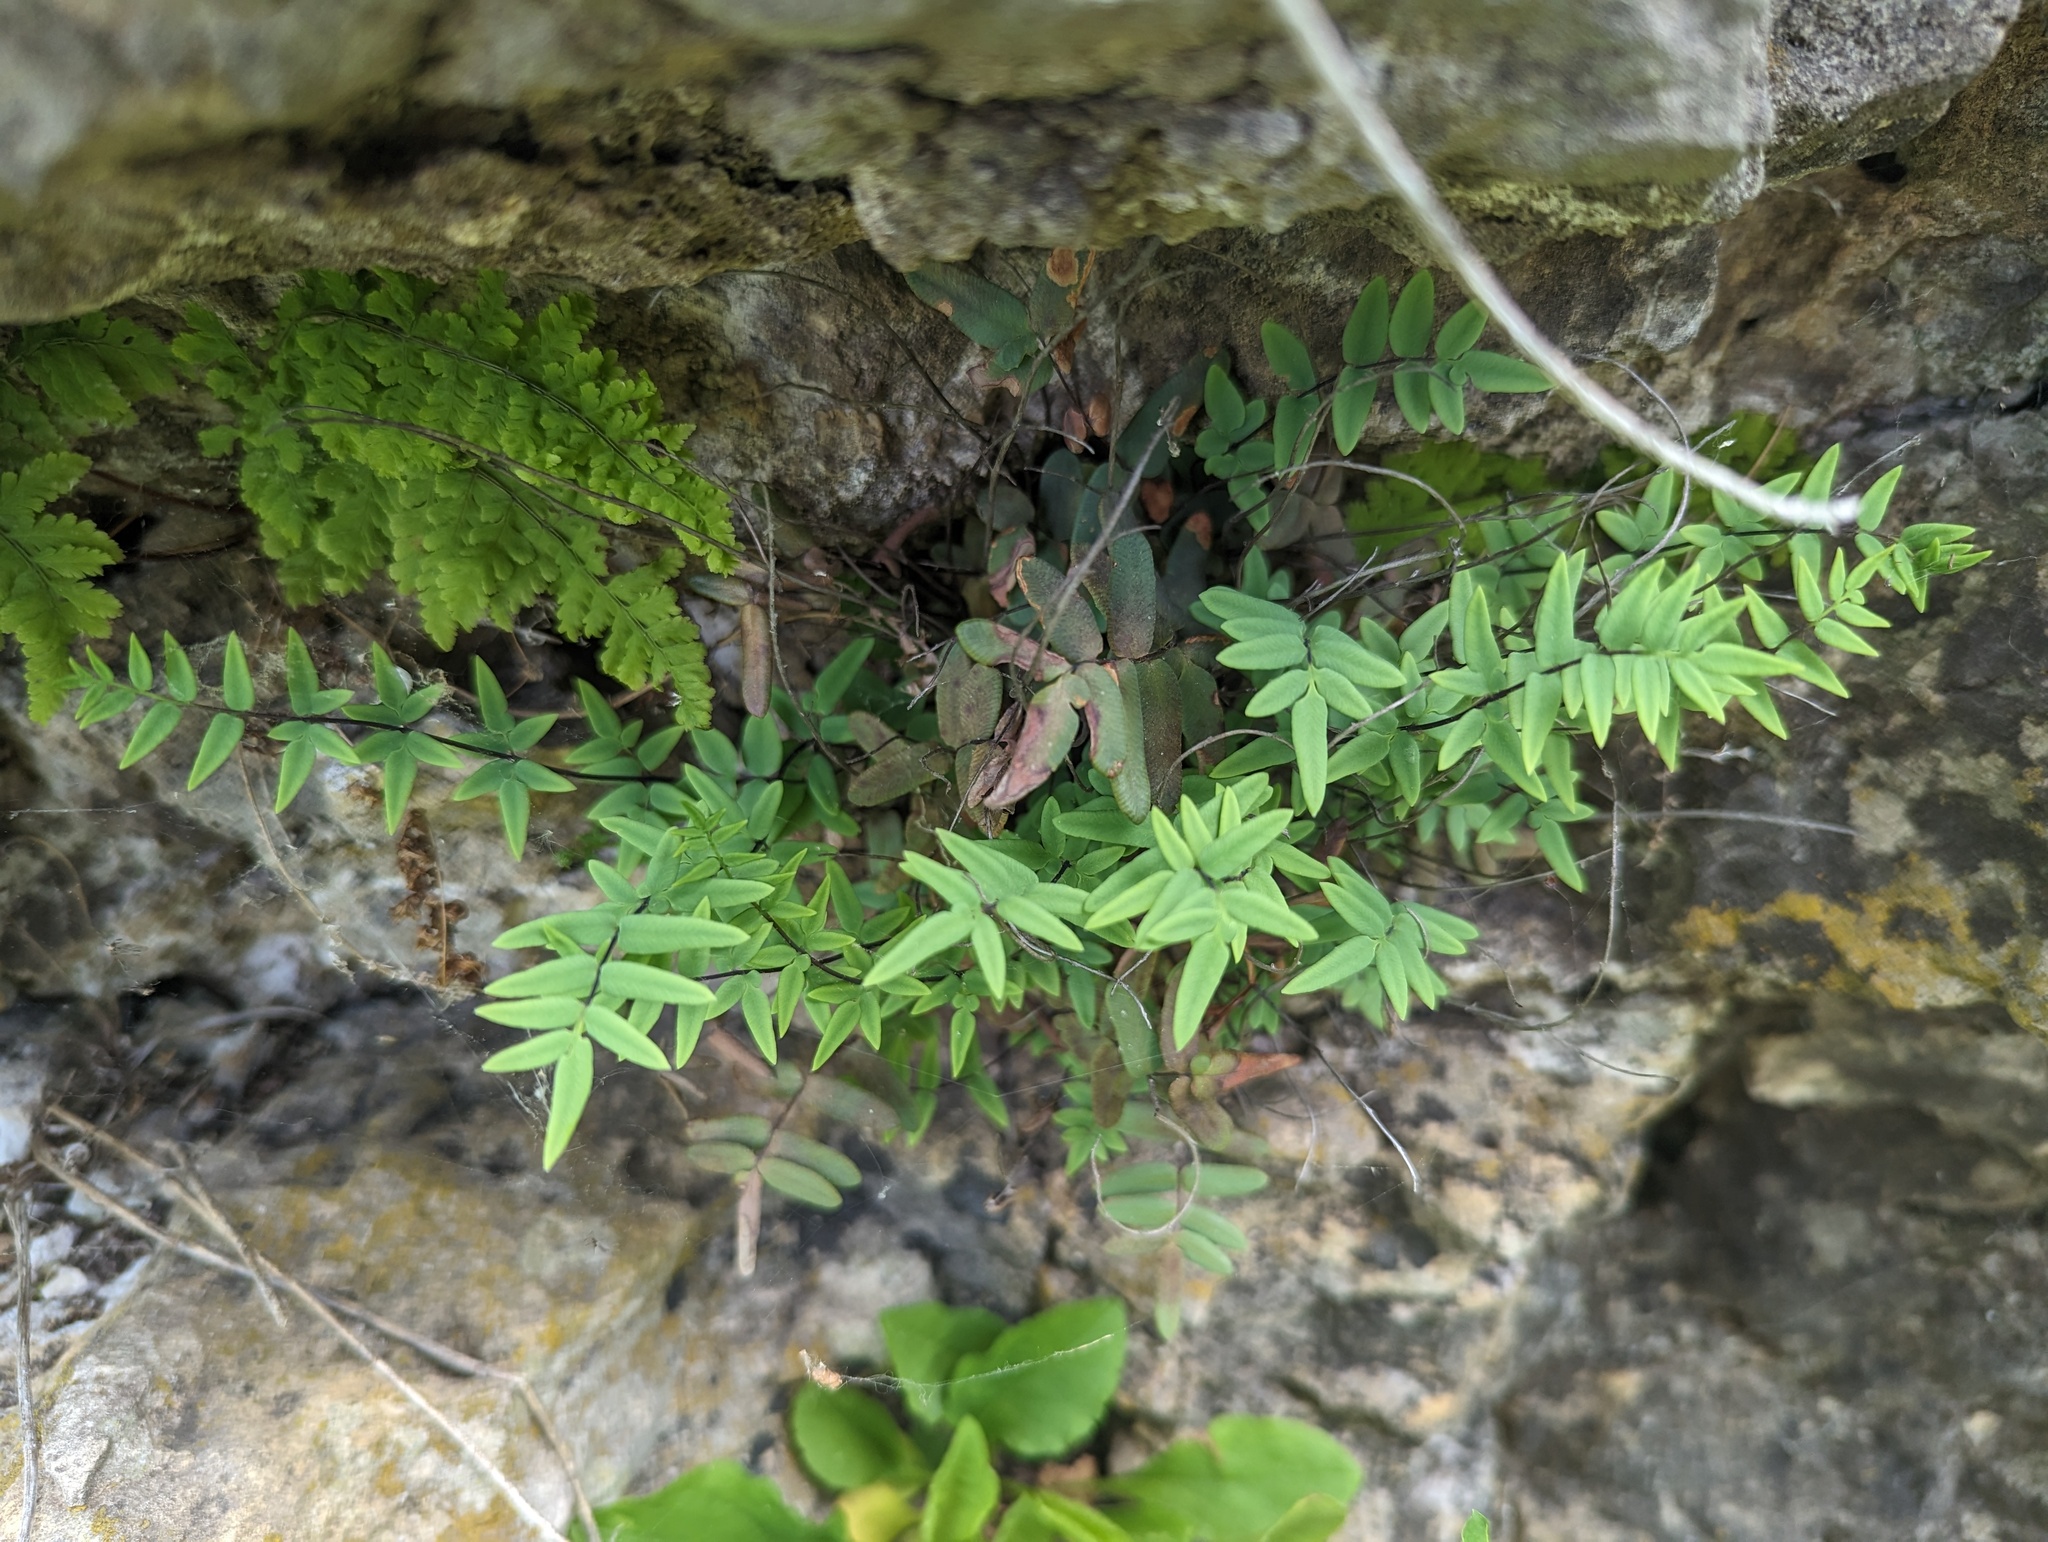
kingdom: Plantae
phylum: Tracheophyta
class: Polypodiopsida
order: Polypodiales
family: Pteridaceae
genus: Pellaea
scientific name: Pellaea glabella
